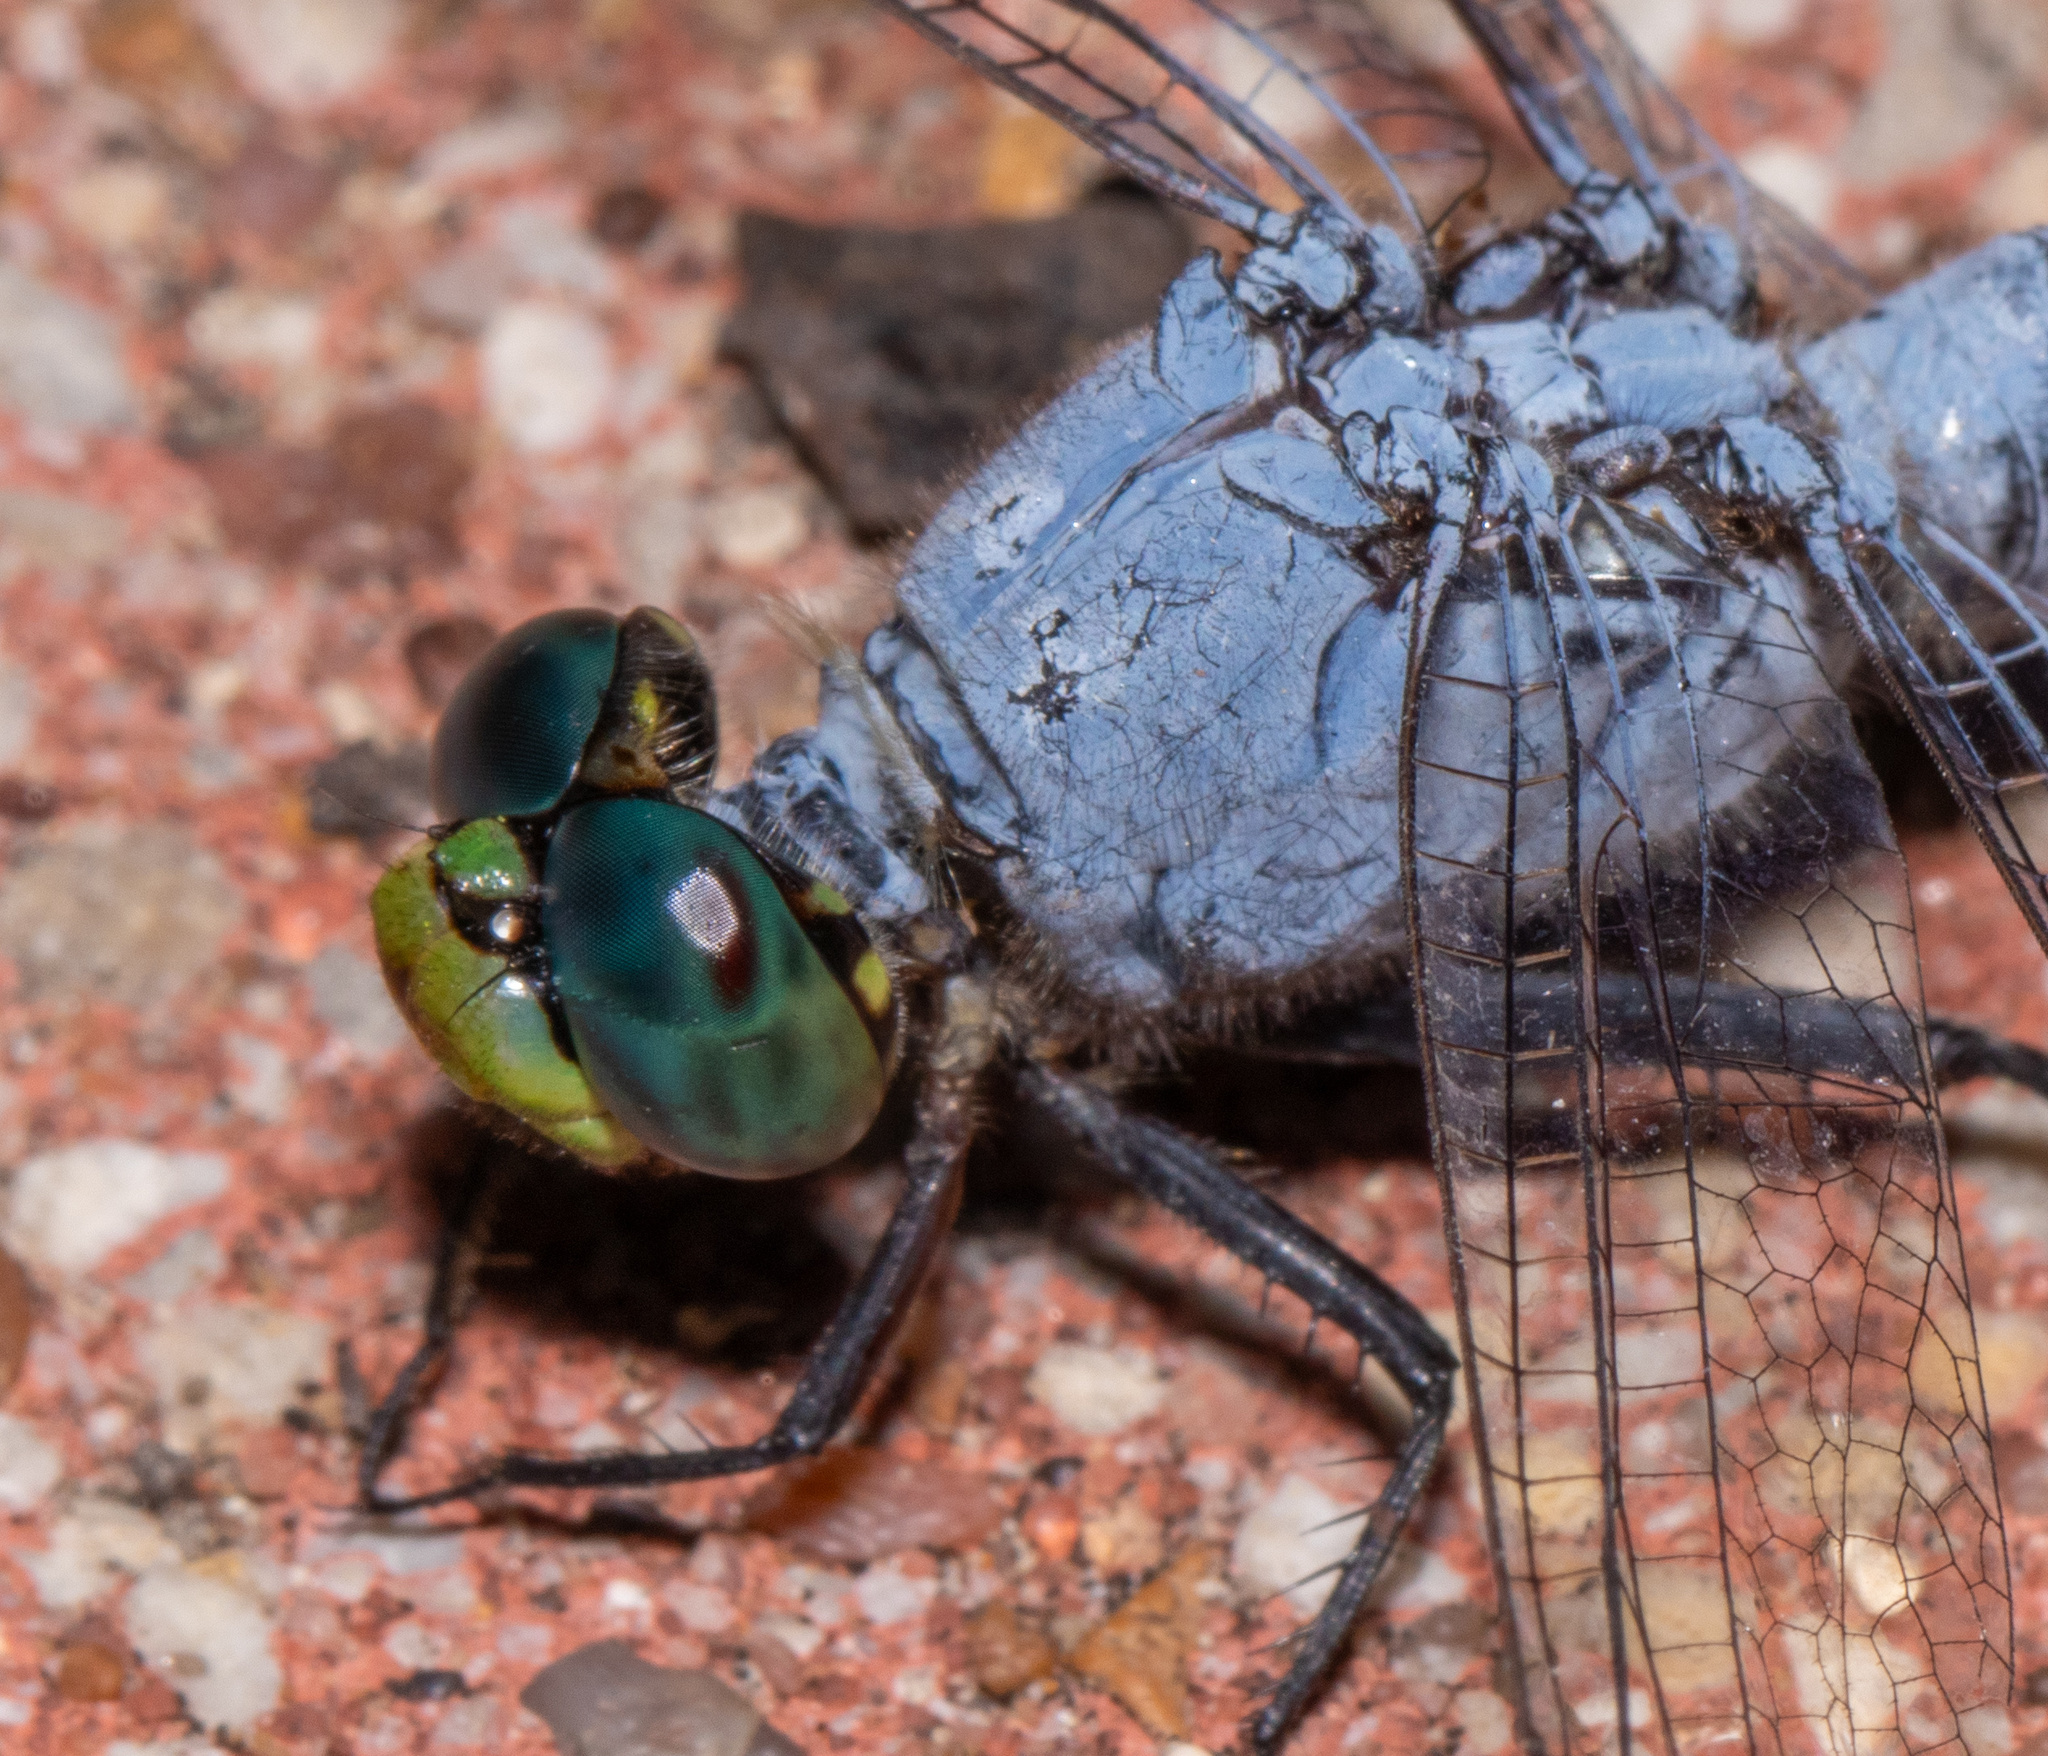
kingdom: Animalia
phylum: Arthropoda
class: Insecta
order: Odonata
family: Libellulidae
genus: Erythemis
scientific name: Erythemis simplicicollis
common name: Eastern pondhawk
